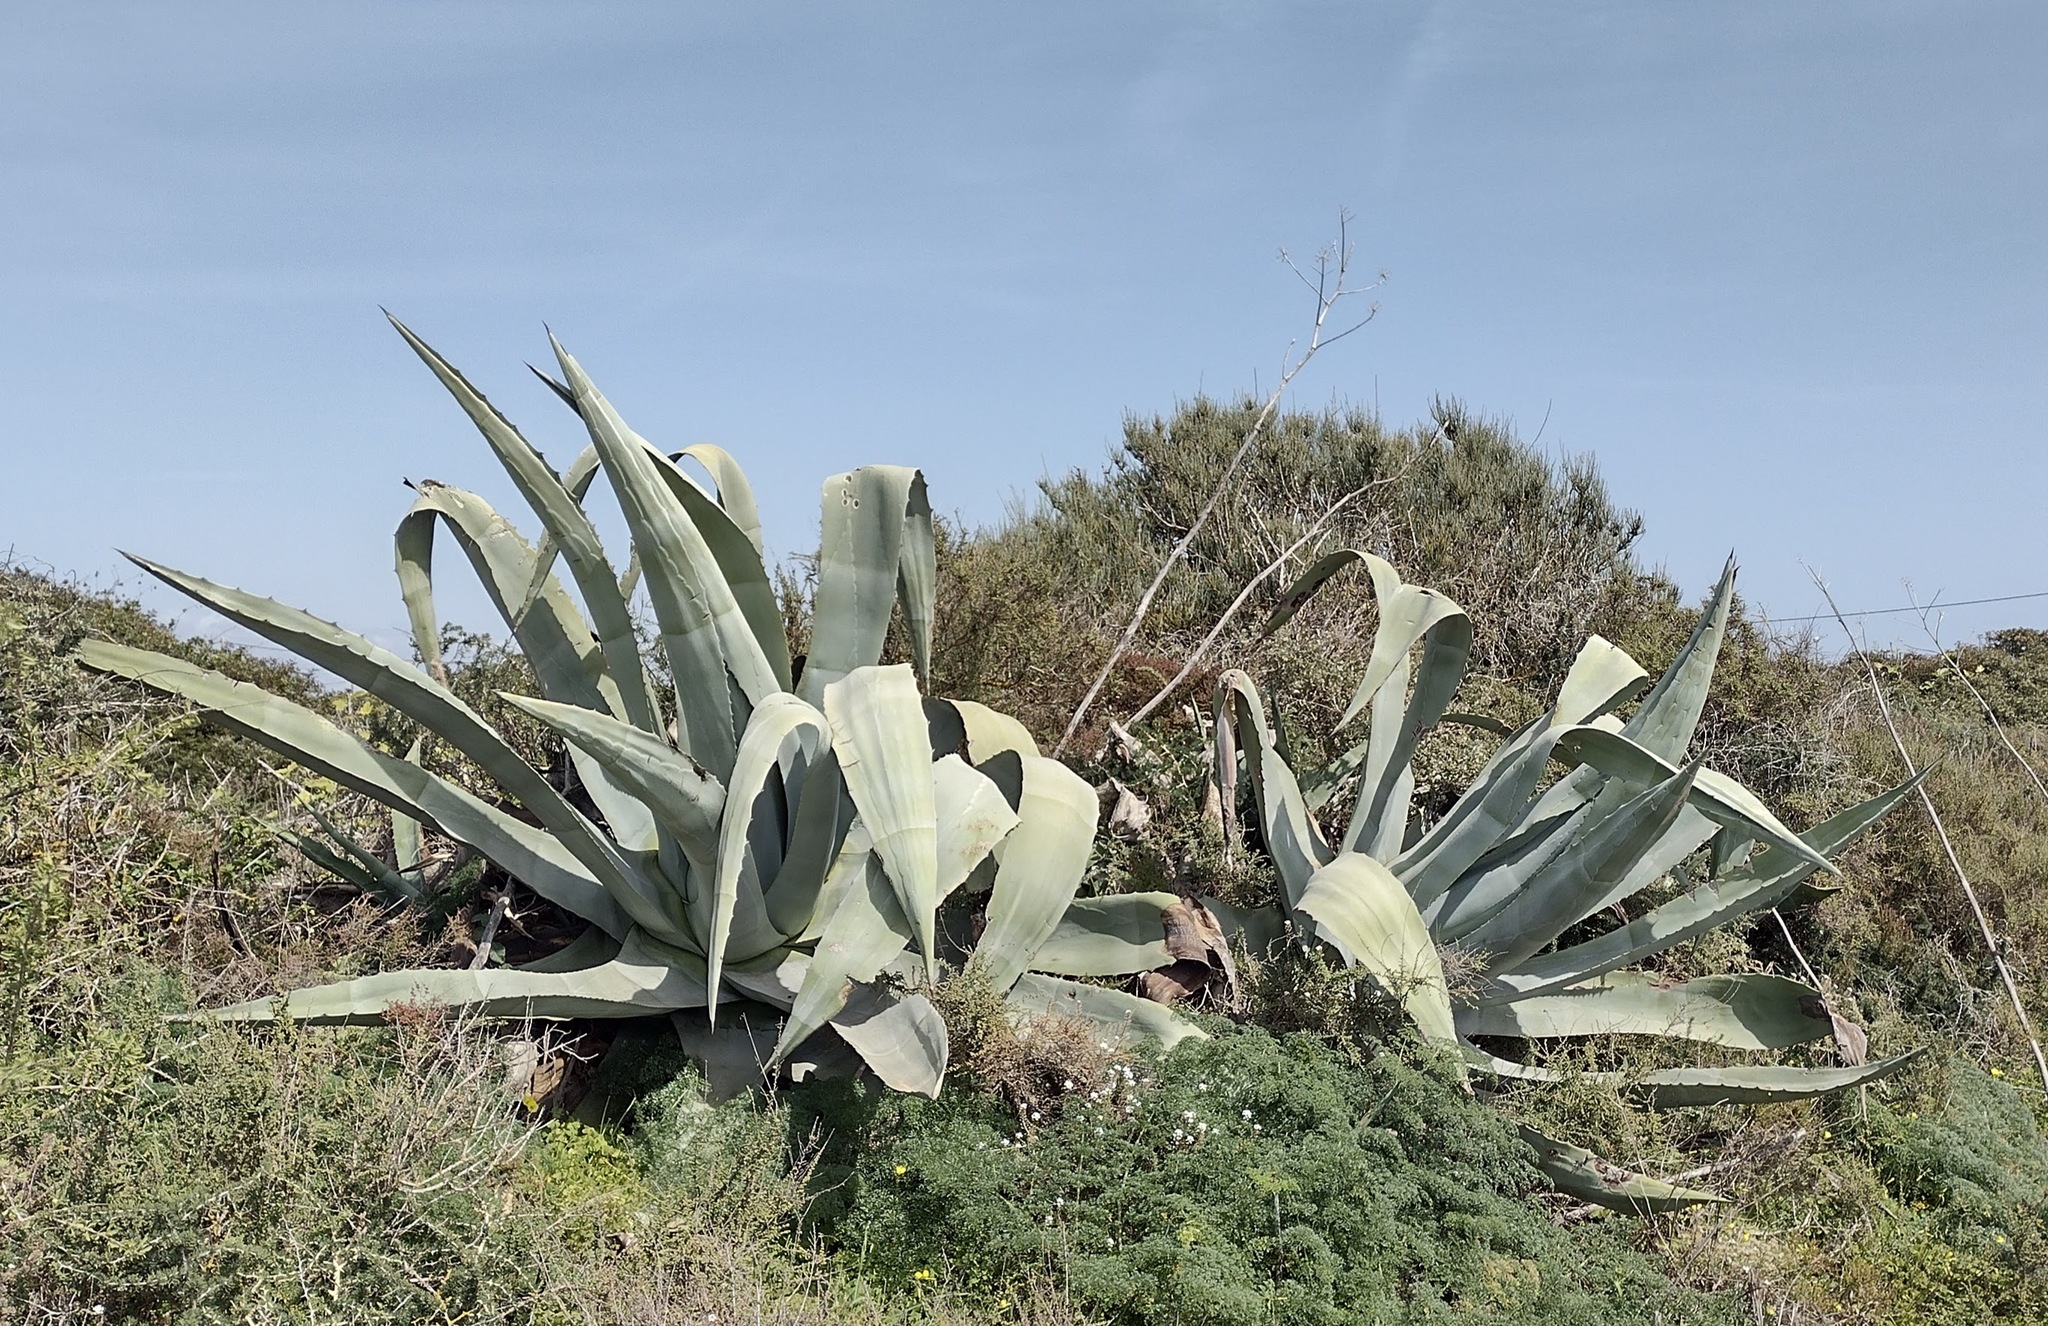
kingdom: Plantae
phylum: Tracheophyta
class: Liliopsida
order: Asparagales
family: Asparagaceae
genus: Agave
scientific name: Agave americana
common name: Centuryplant
